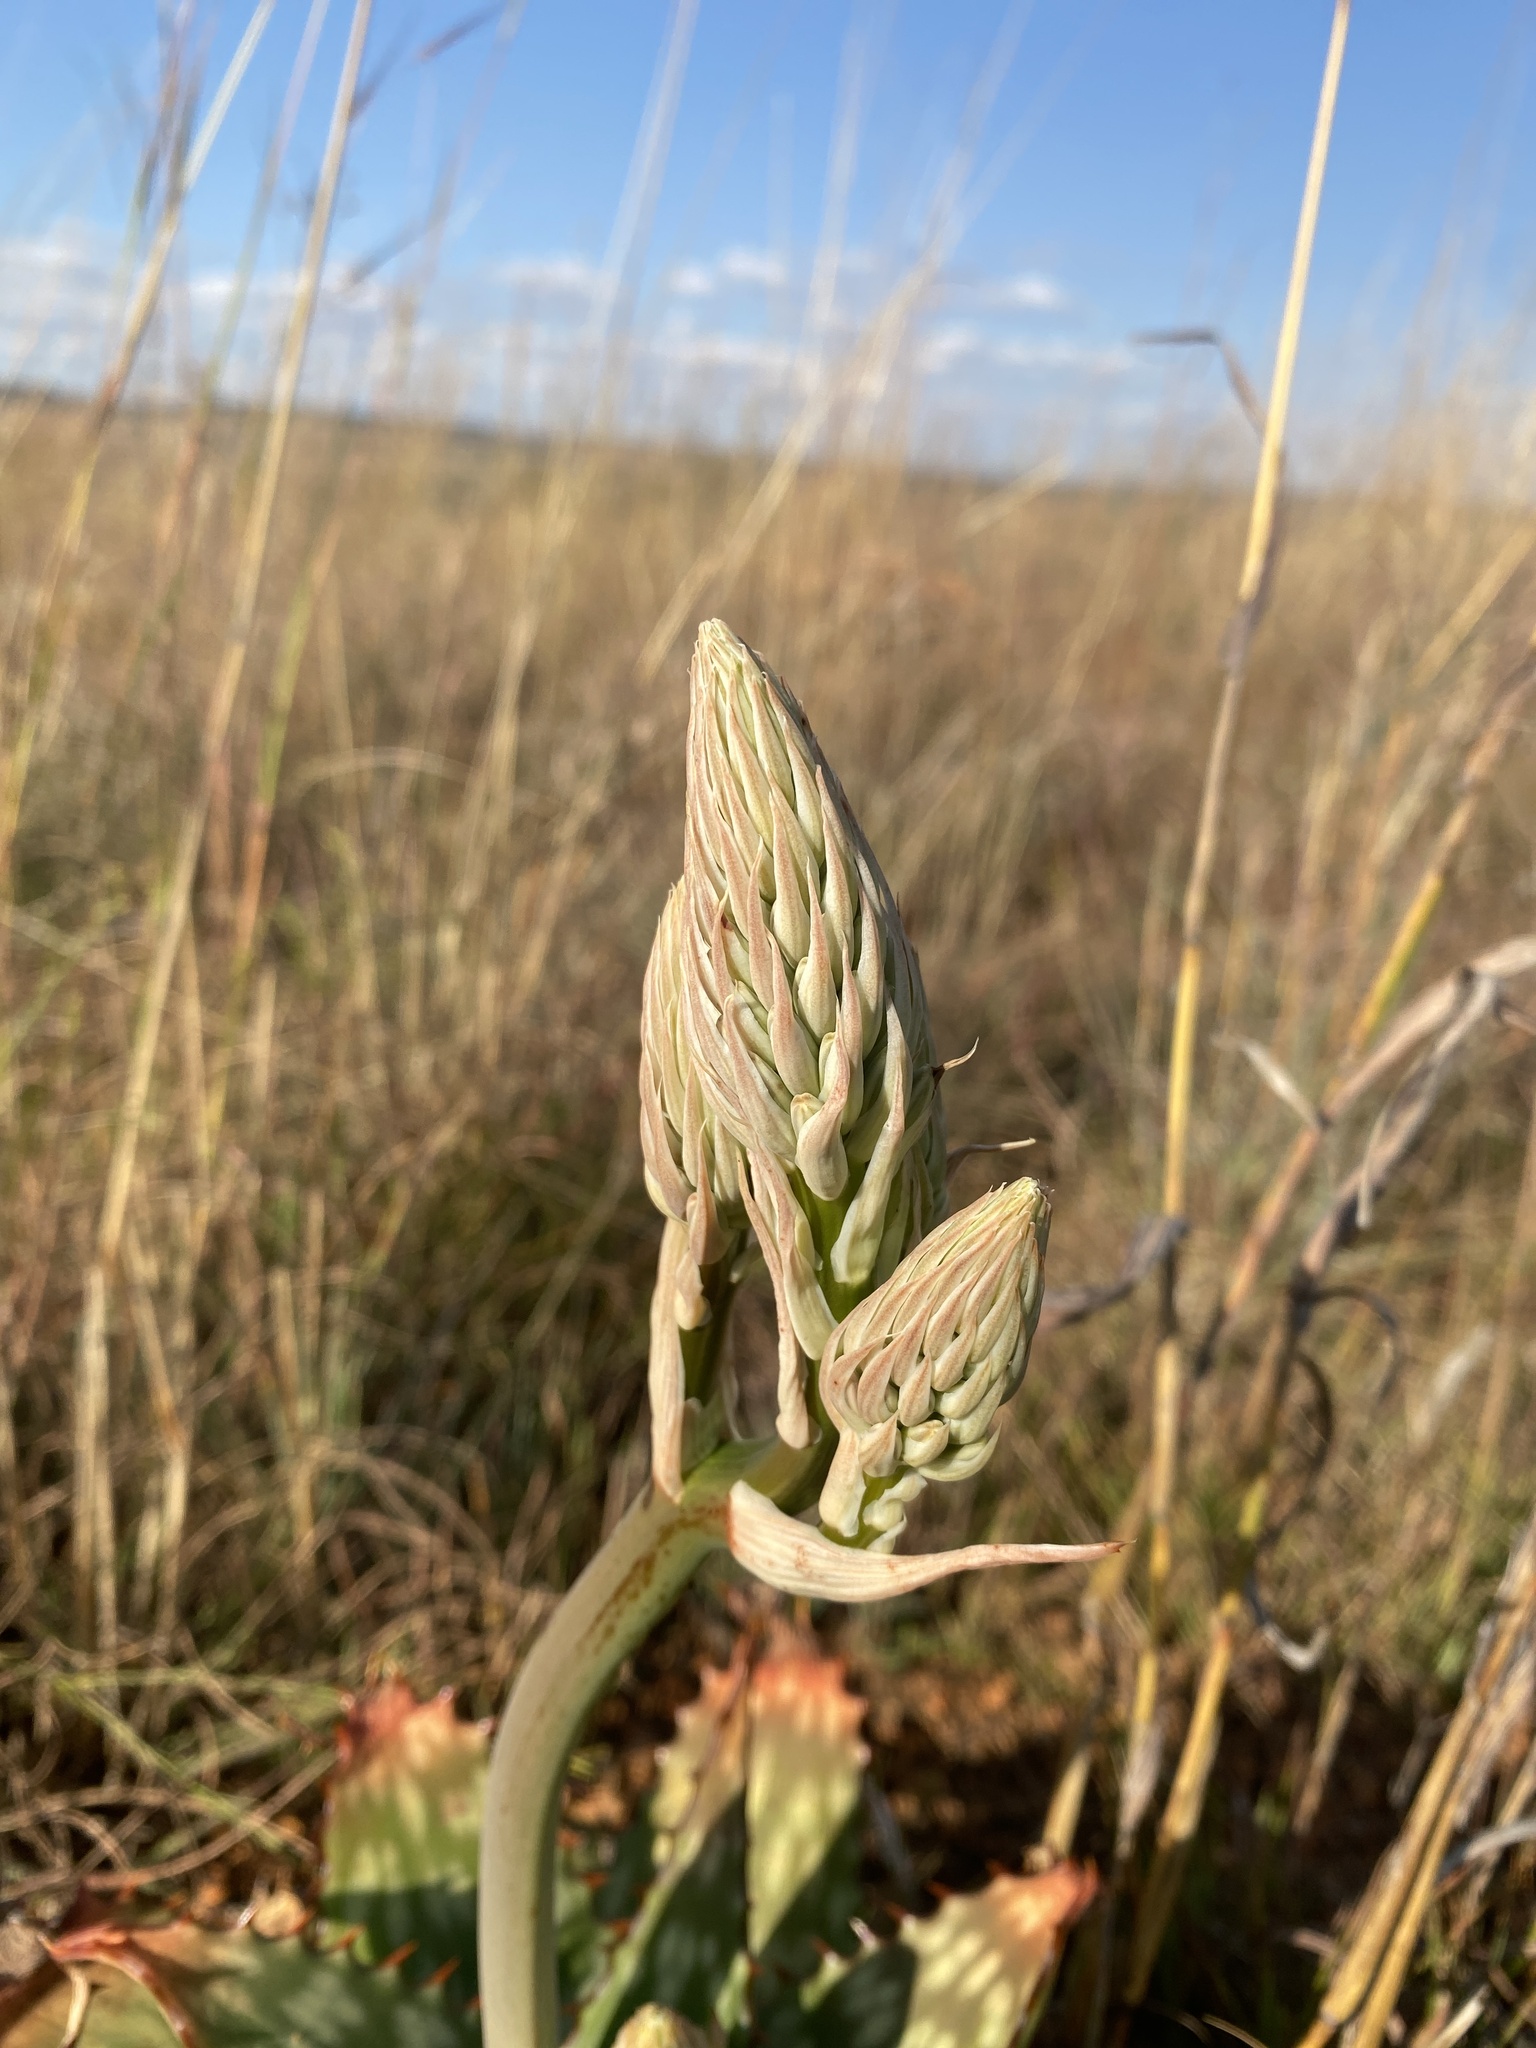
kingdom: Plantae
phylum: Tracheophyta
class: Liliopsida
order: Asparagales
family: Asphodelaceae
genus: Aloe
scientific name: Aloe davyana
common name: Spotted aloe
